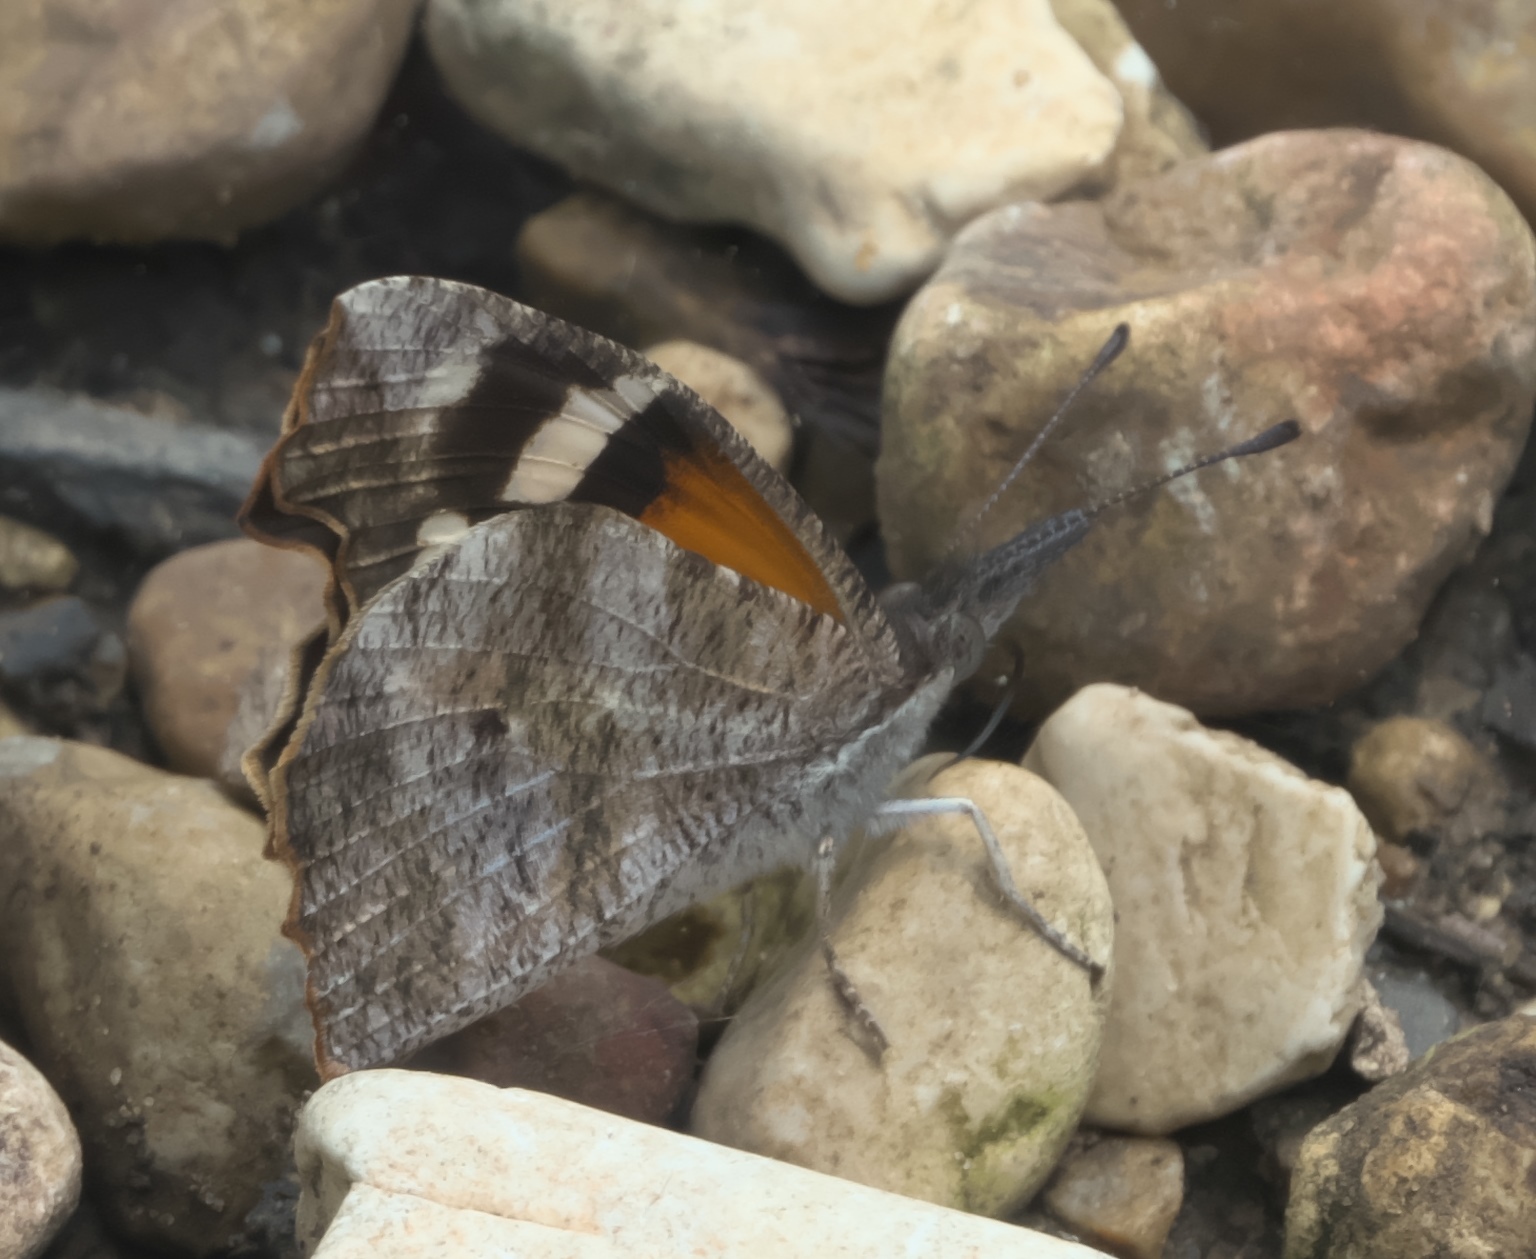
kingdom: Animalia
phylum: Arthropoda
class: Insecta
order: Lepidoptera
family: Nymphalidae
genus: Libytheana
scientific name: Libytheana carinenta
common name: American snout
